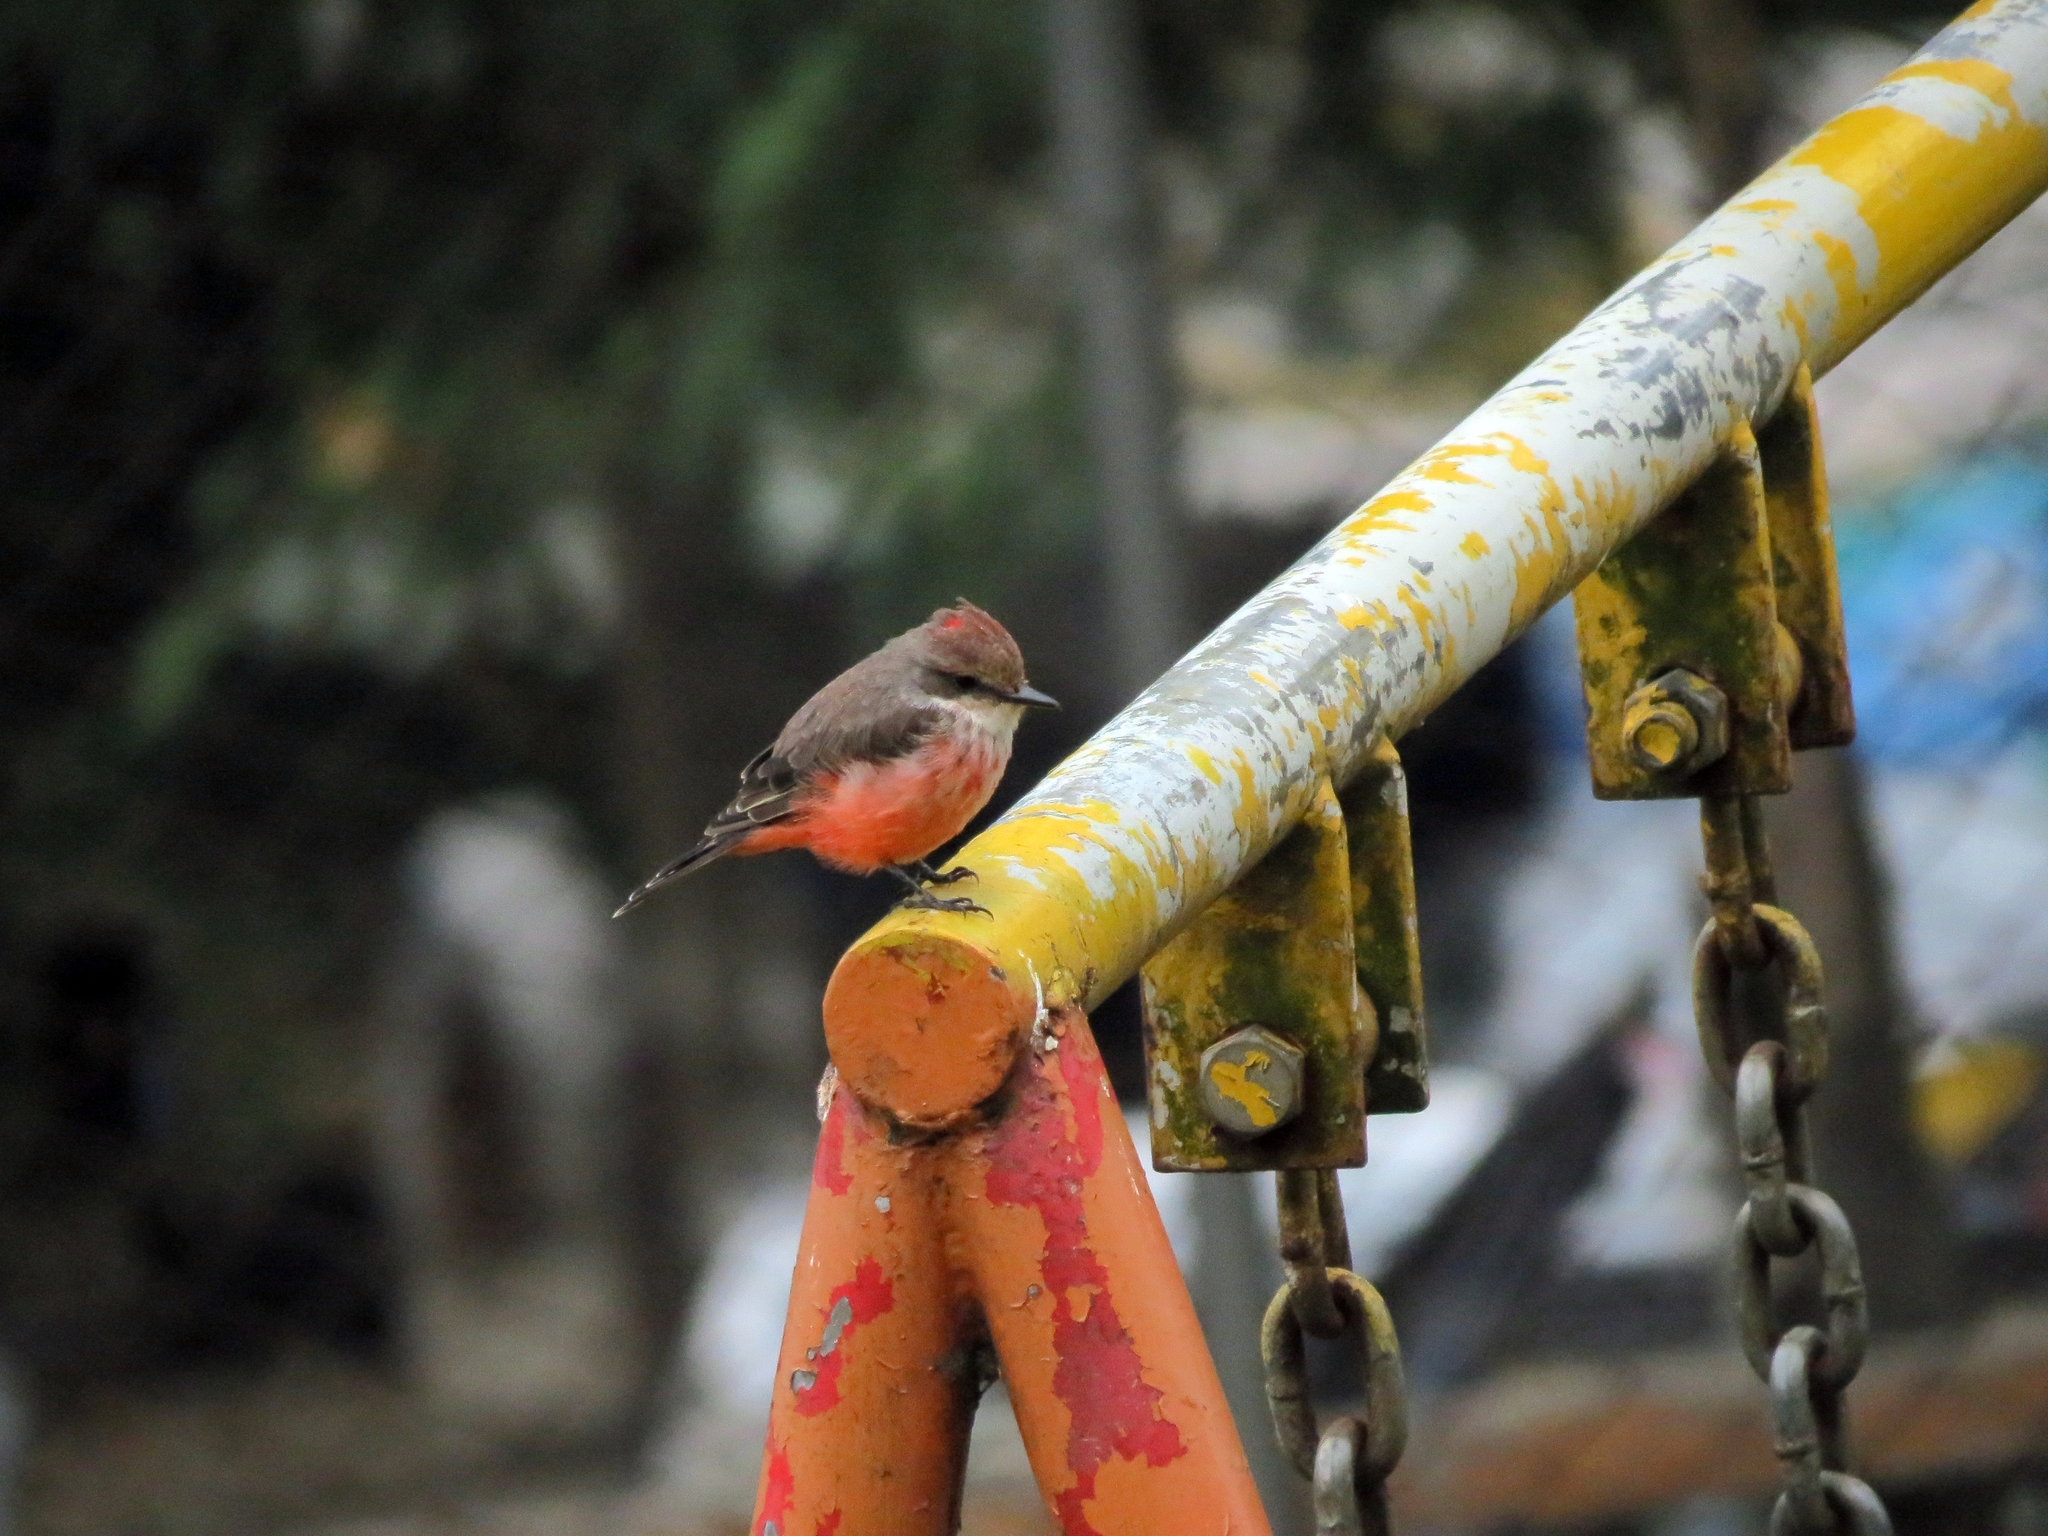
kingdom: Animalia
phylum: Chordata
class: Aves
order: Passeriformes
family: Tyrannidae
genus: Pyrocephalus
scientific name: Pyrocephalus rubinus
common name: Vermilion flycatcher
